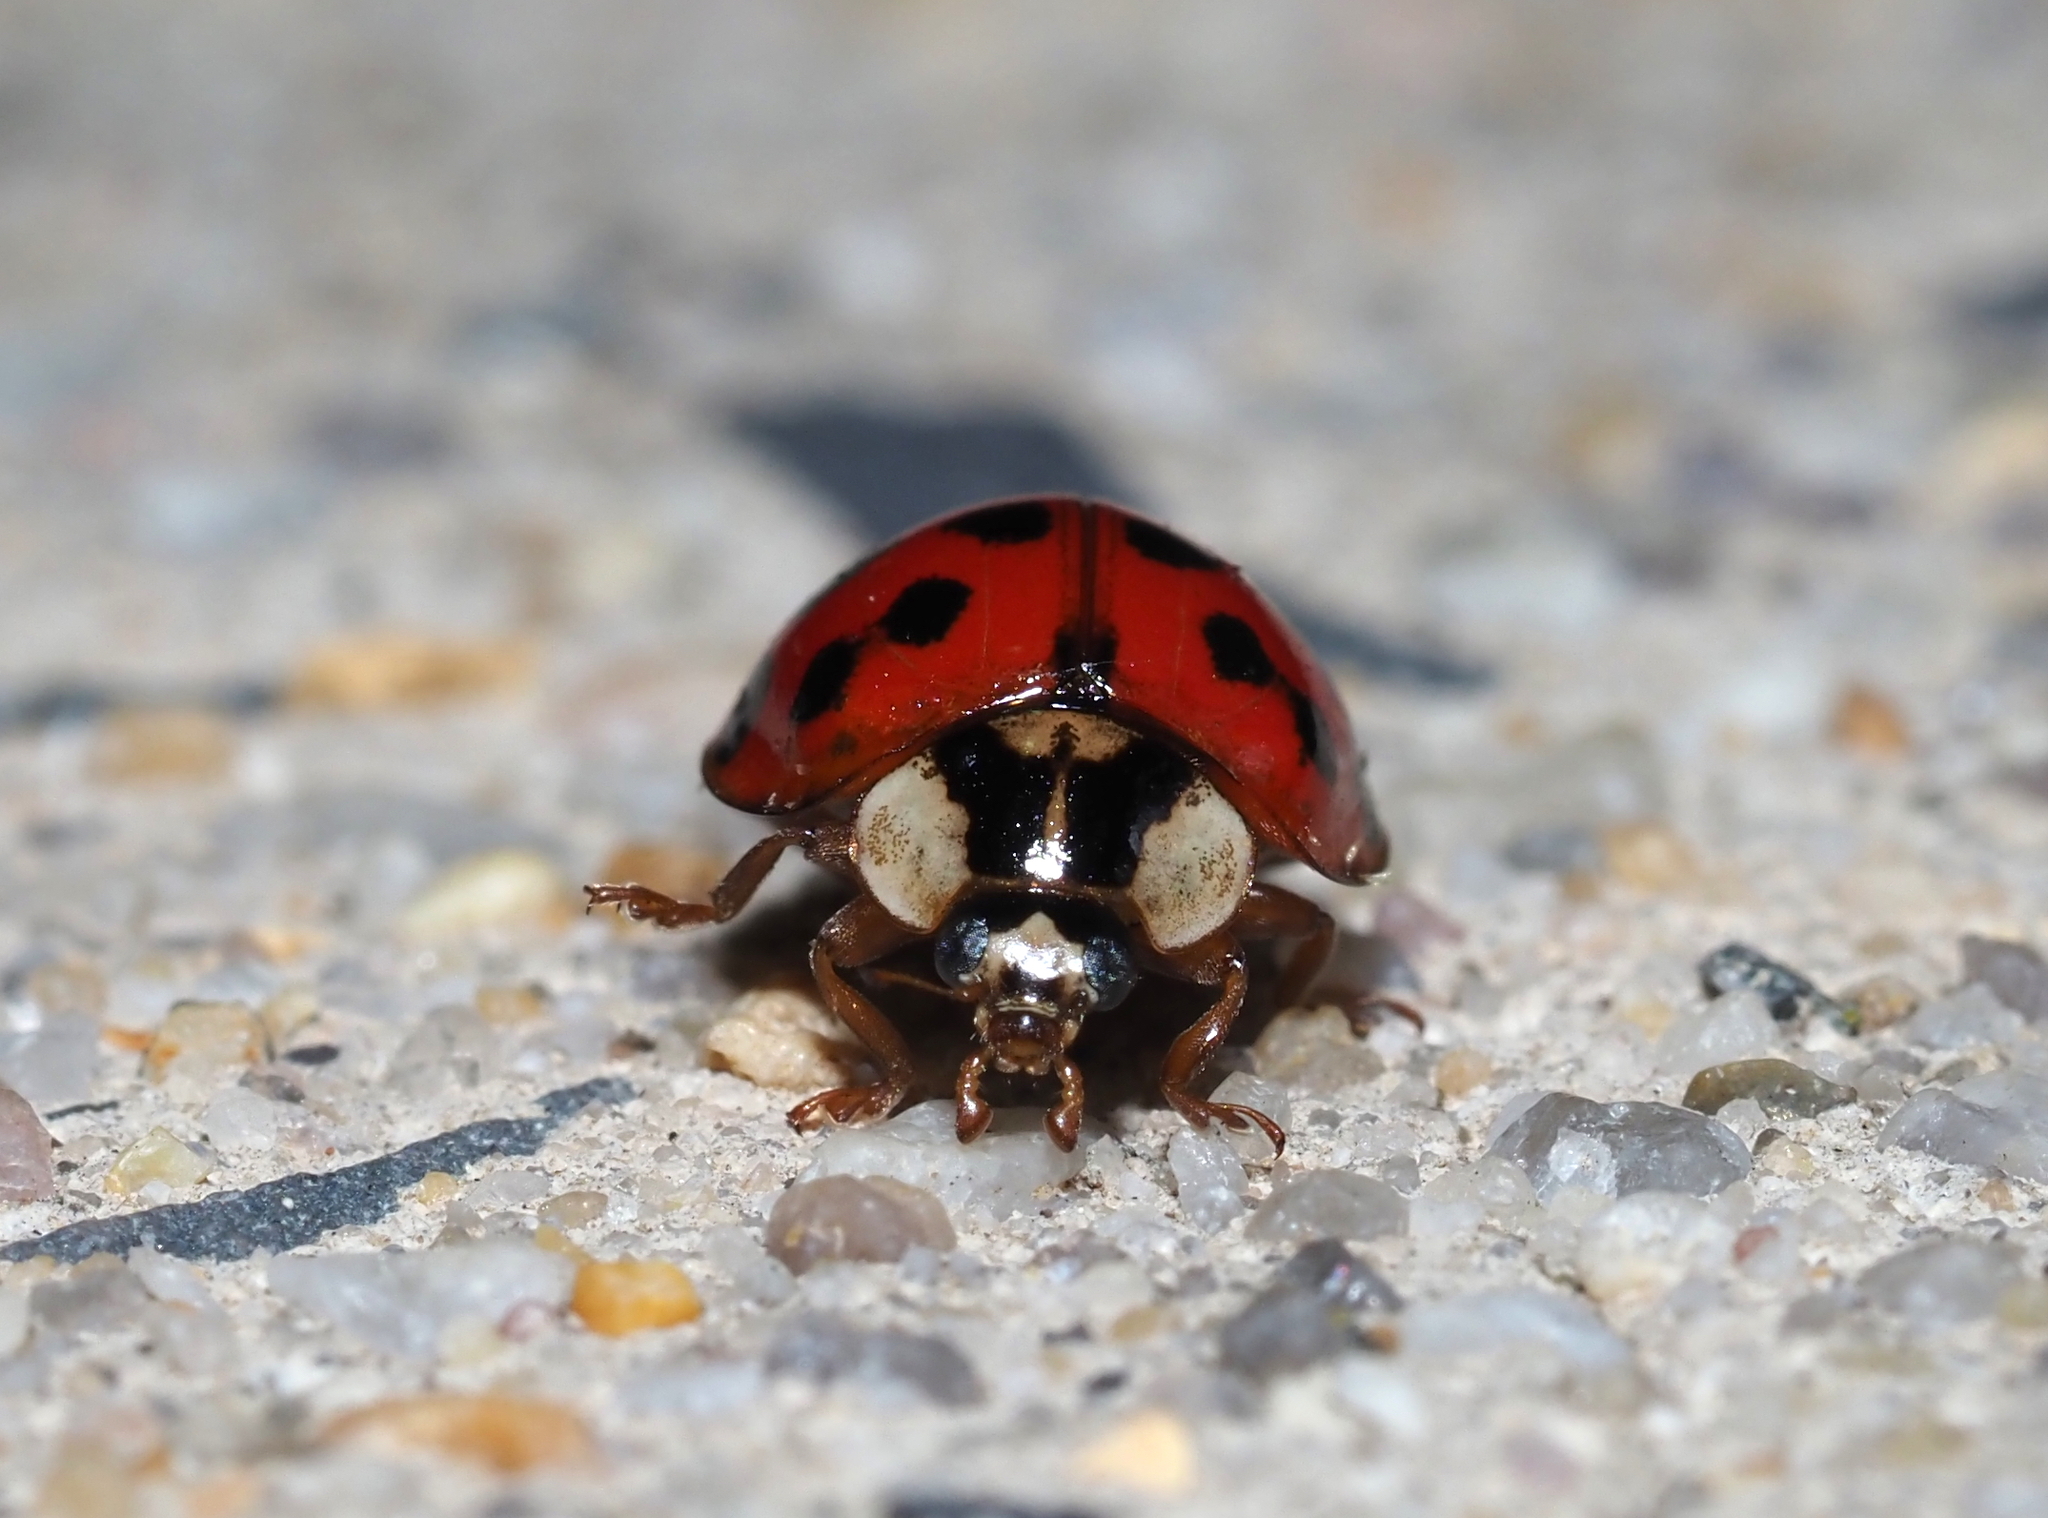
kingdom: Animalia
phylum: Arthropoda
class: Insecta
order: Coleoptera
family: Coccinellidae
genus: Harmonia
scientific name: Harmonia axyridis
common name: Harlequin ladybird
